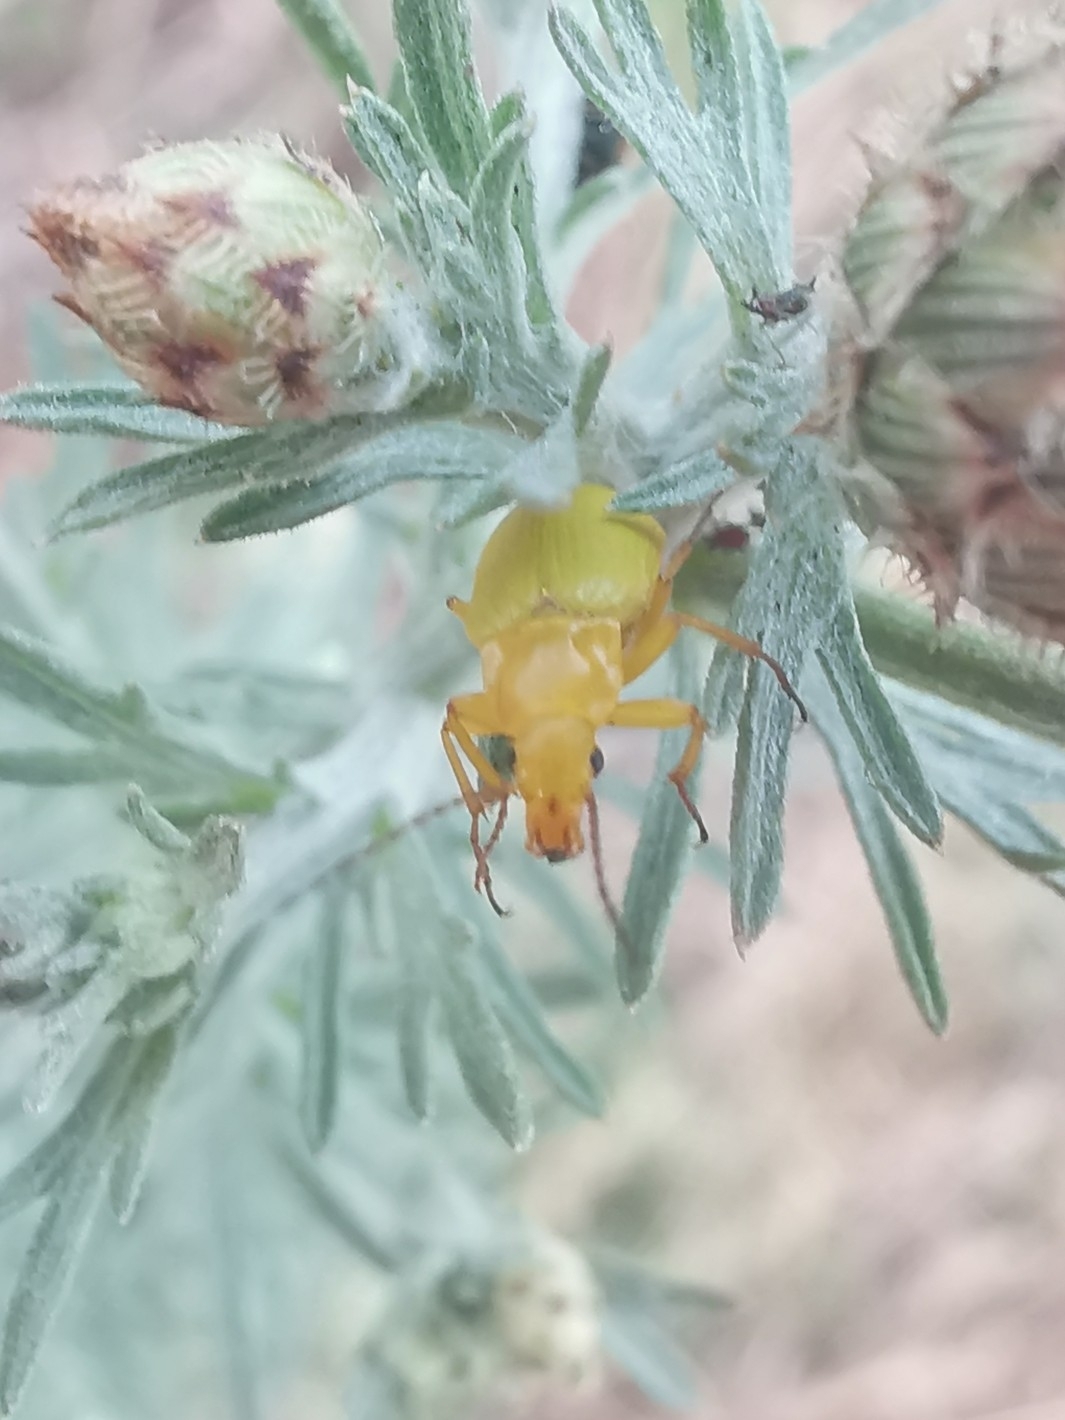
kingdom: Animalia
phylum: Arthropoda
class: Insecta
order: Coleoptera
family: Tenebrionidae
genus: Cteniopus
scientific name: Cteniopus sulphureus
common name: Sulphur beetle
